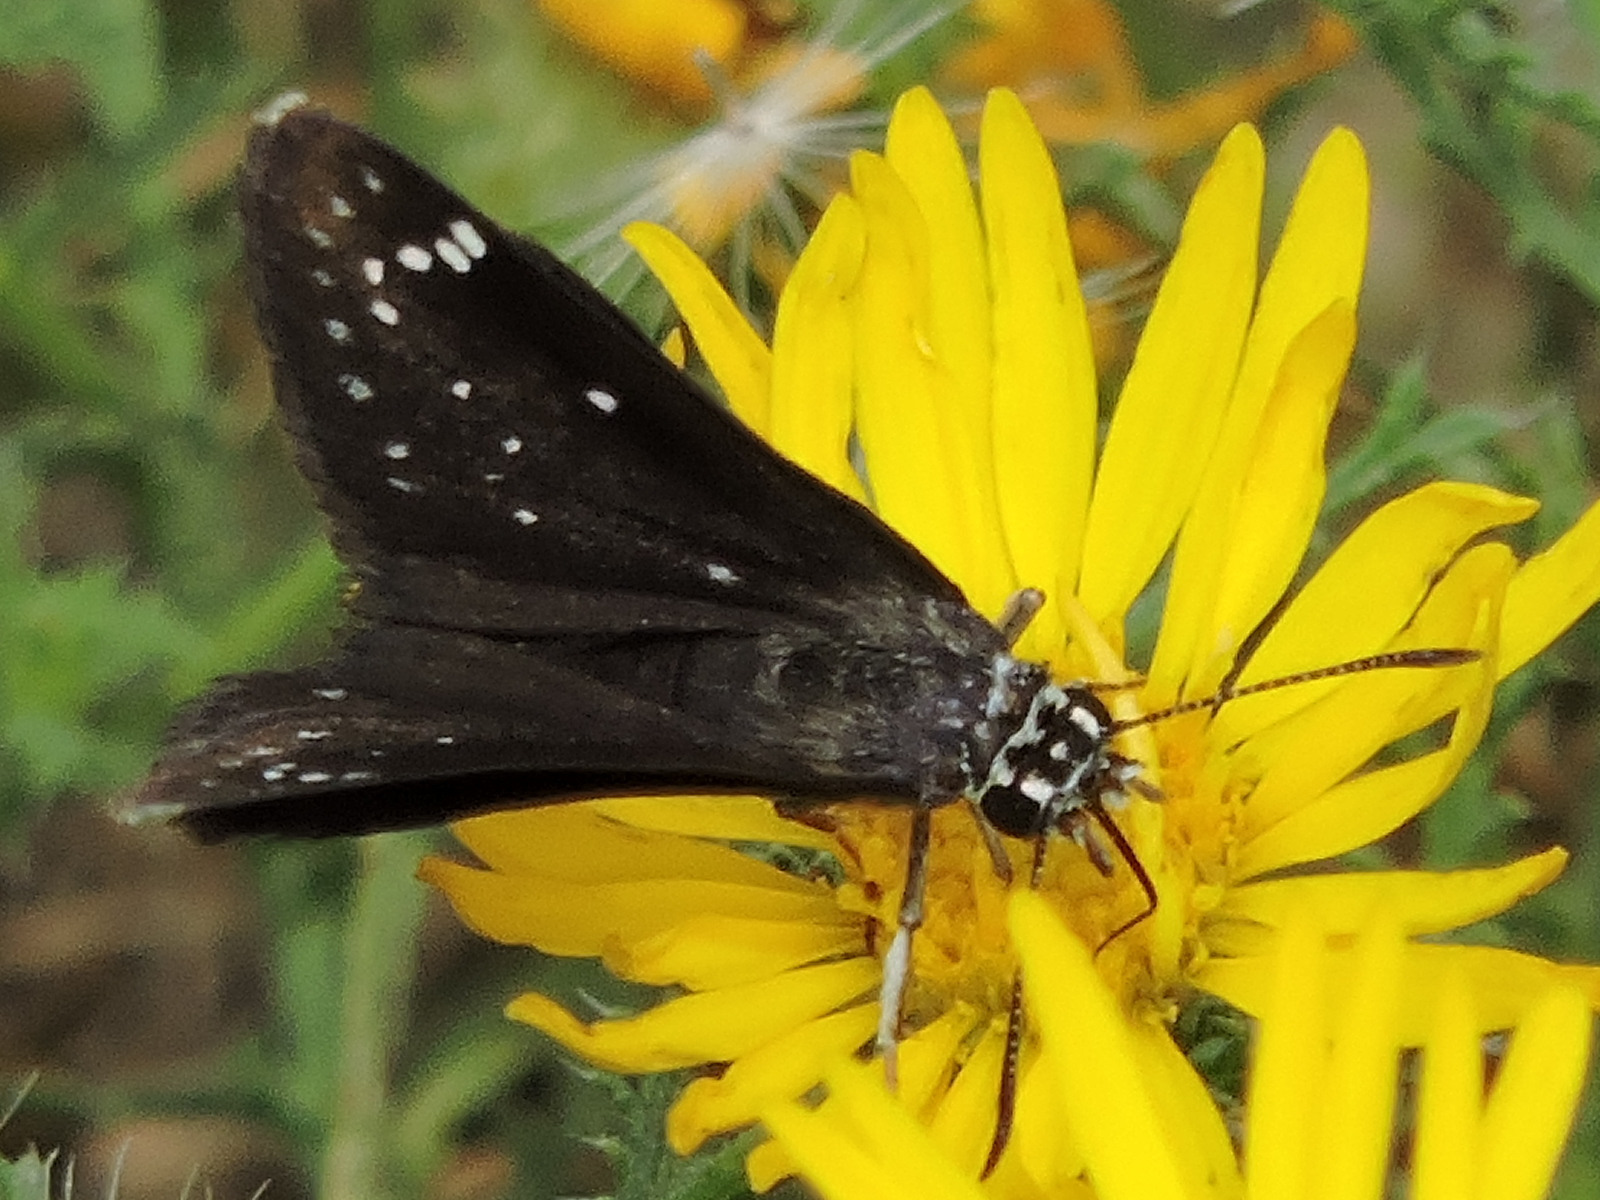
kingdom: Animalia
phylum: Arthropoda
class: Insecta
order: Lepidoptera
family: Hesperiidae
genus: Pholisora
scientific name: Pholisora catullus
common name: Common sootywing
